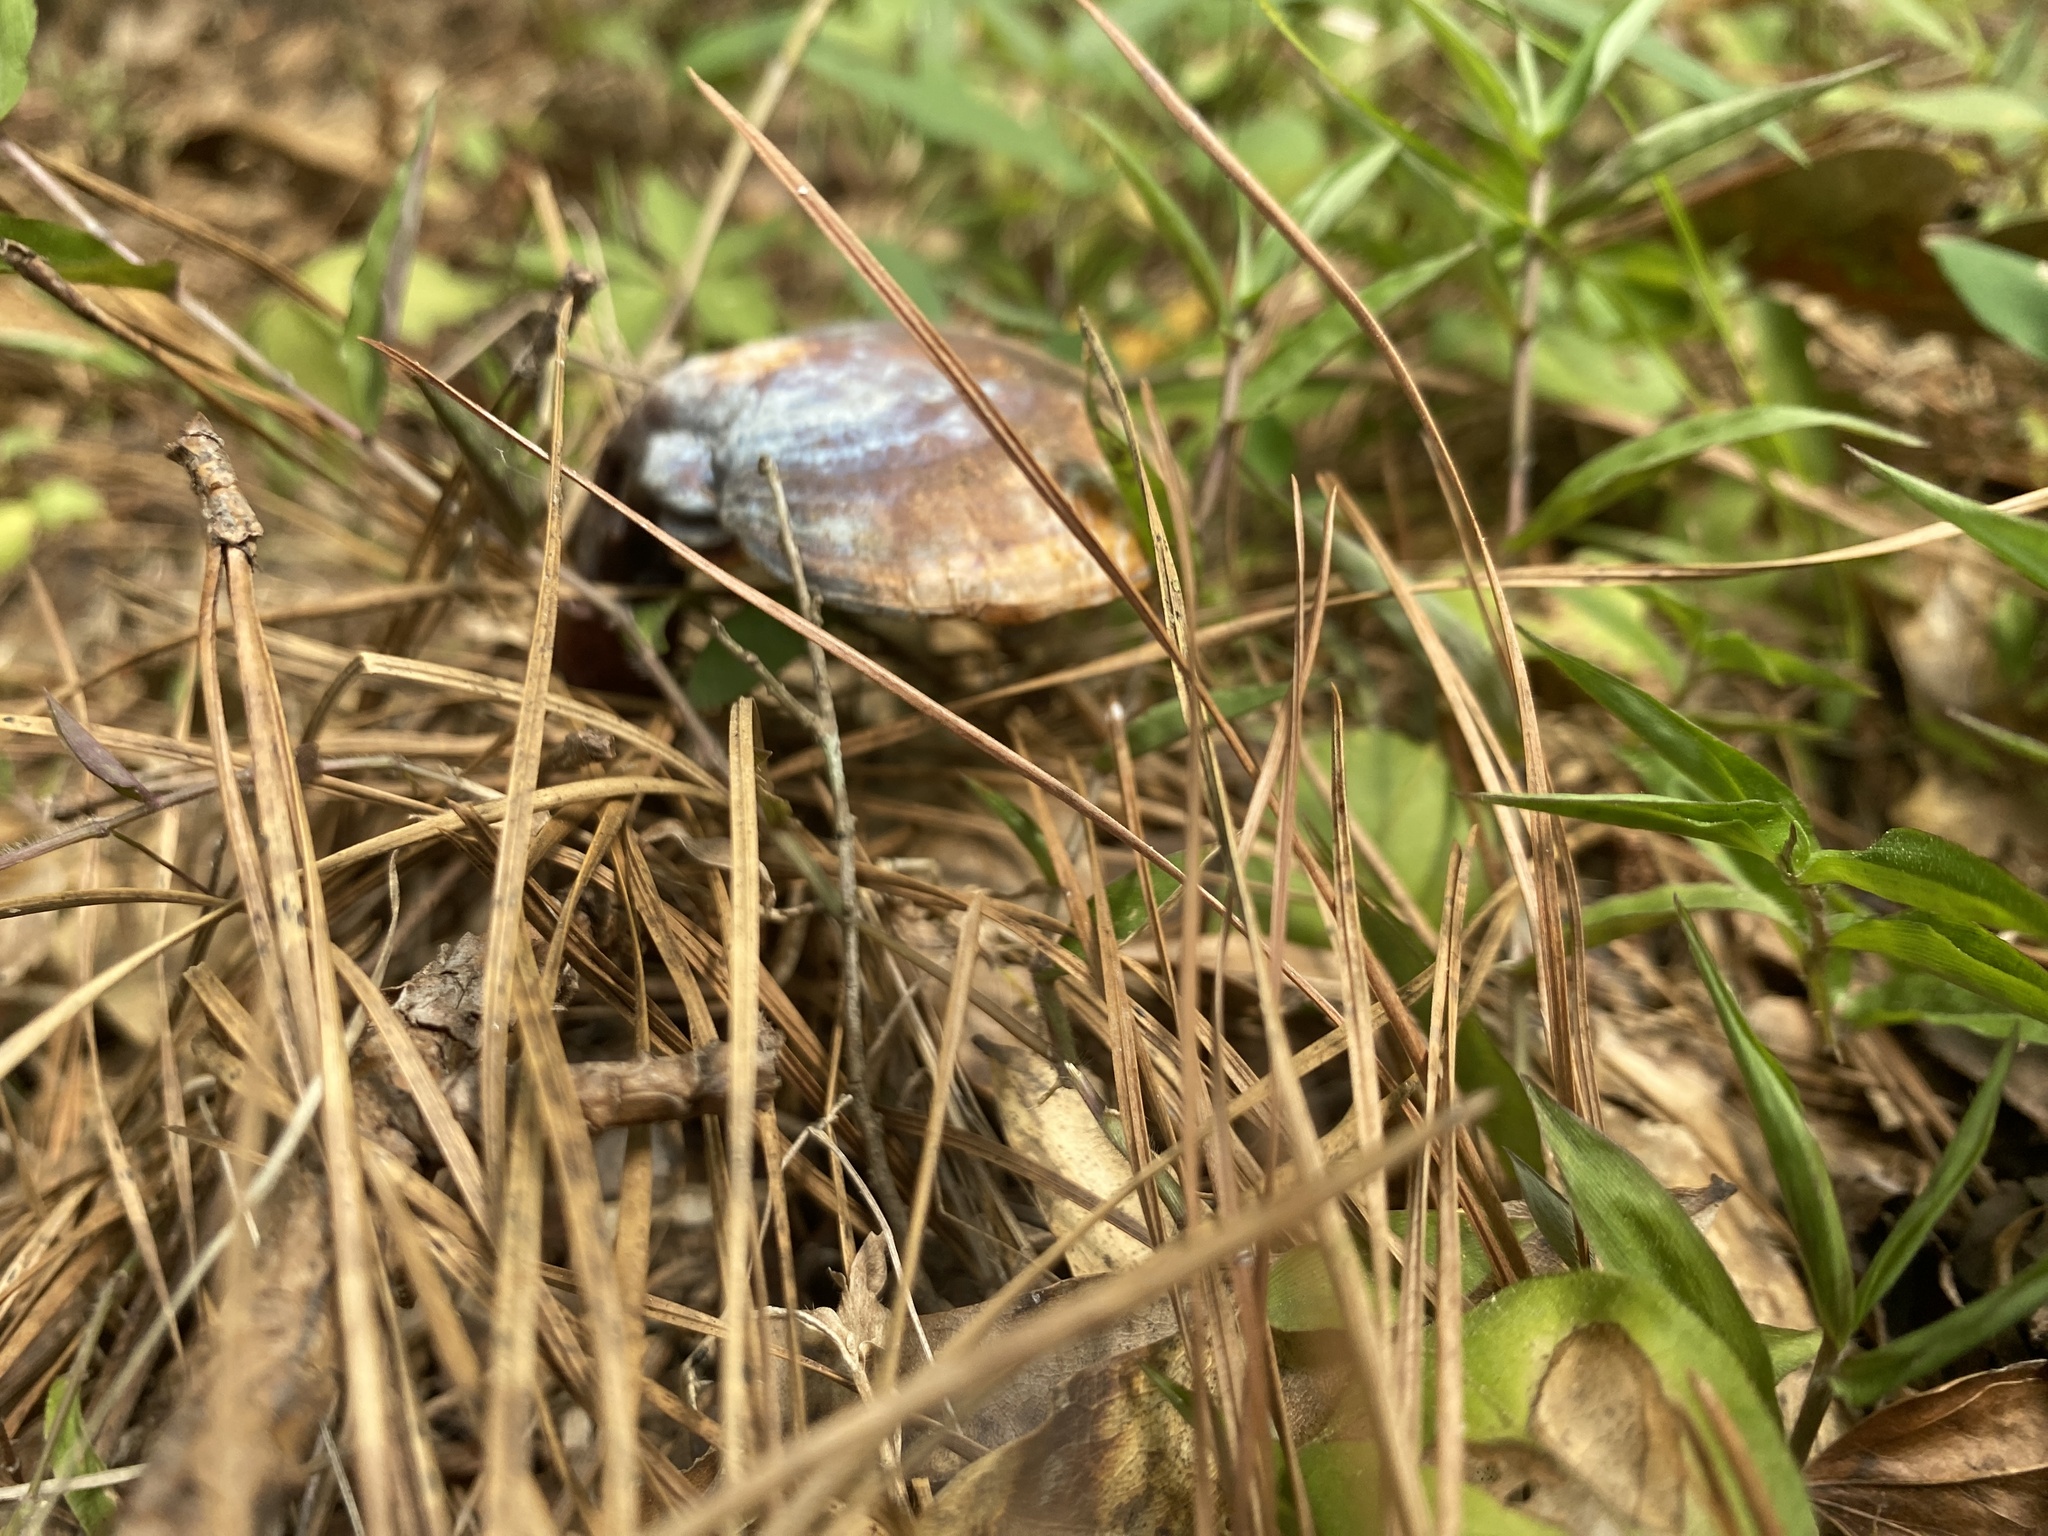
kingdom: Fungi
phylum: Basidiomycota
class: Agaricomycetes
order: Polyporales
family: Polyporaceae
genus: Ganoderma
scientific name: Ganoderma curtisii
